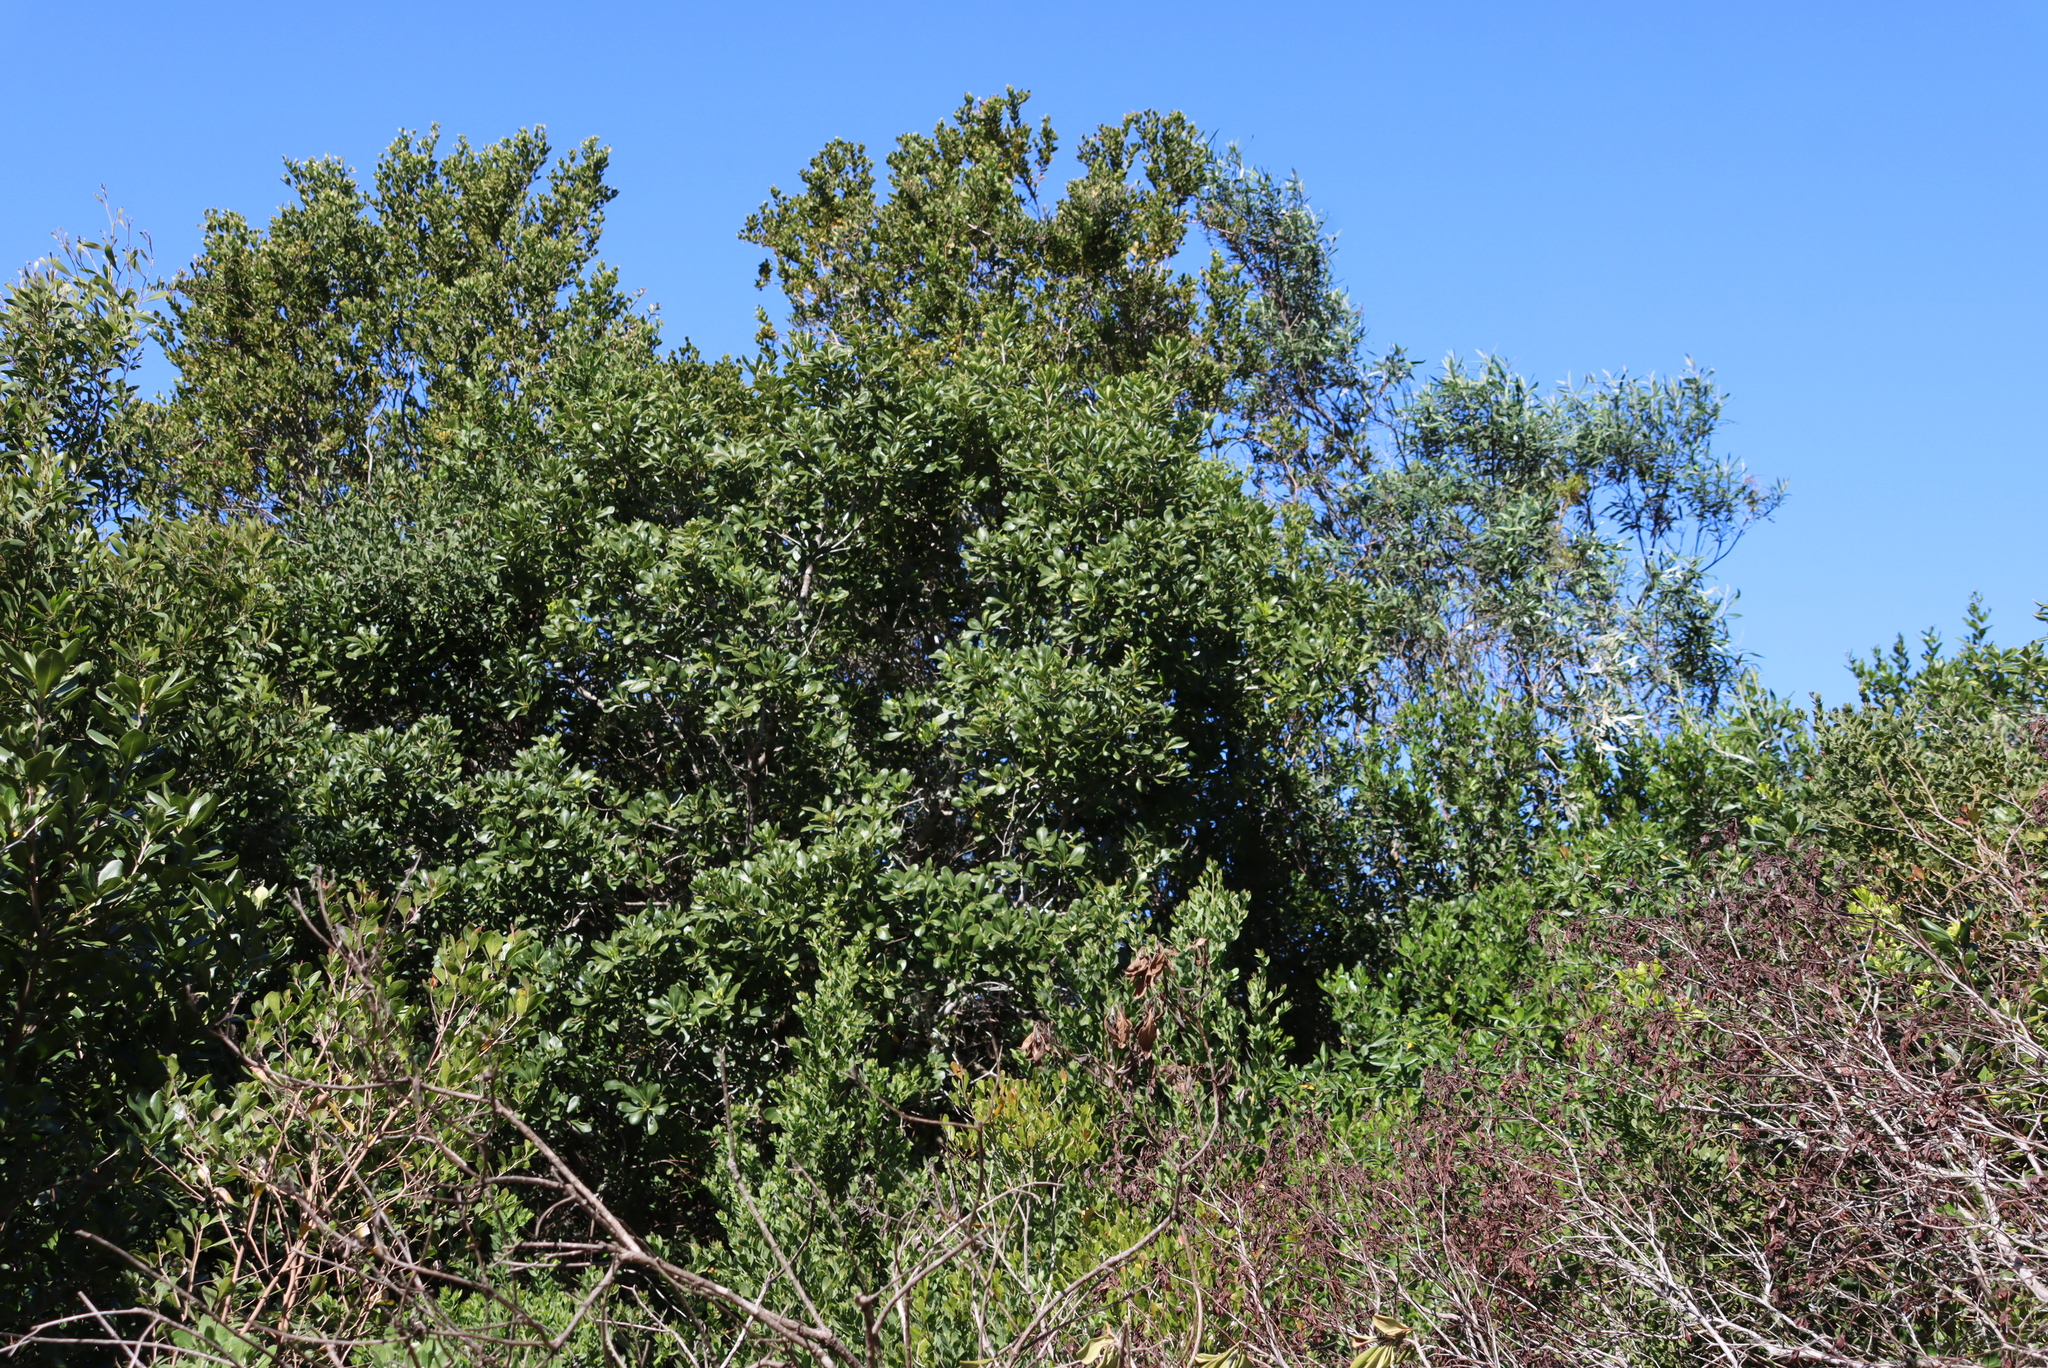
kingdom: Plantae
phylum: Tracheophyta
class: Magnoliopsida
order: Apiales
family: Pittosporaceae
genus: Pittosporum
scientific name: Pittosporum viridiflorum
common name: Cape cheesewood
